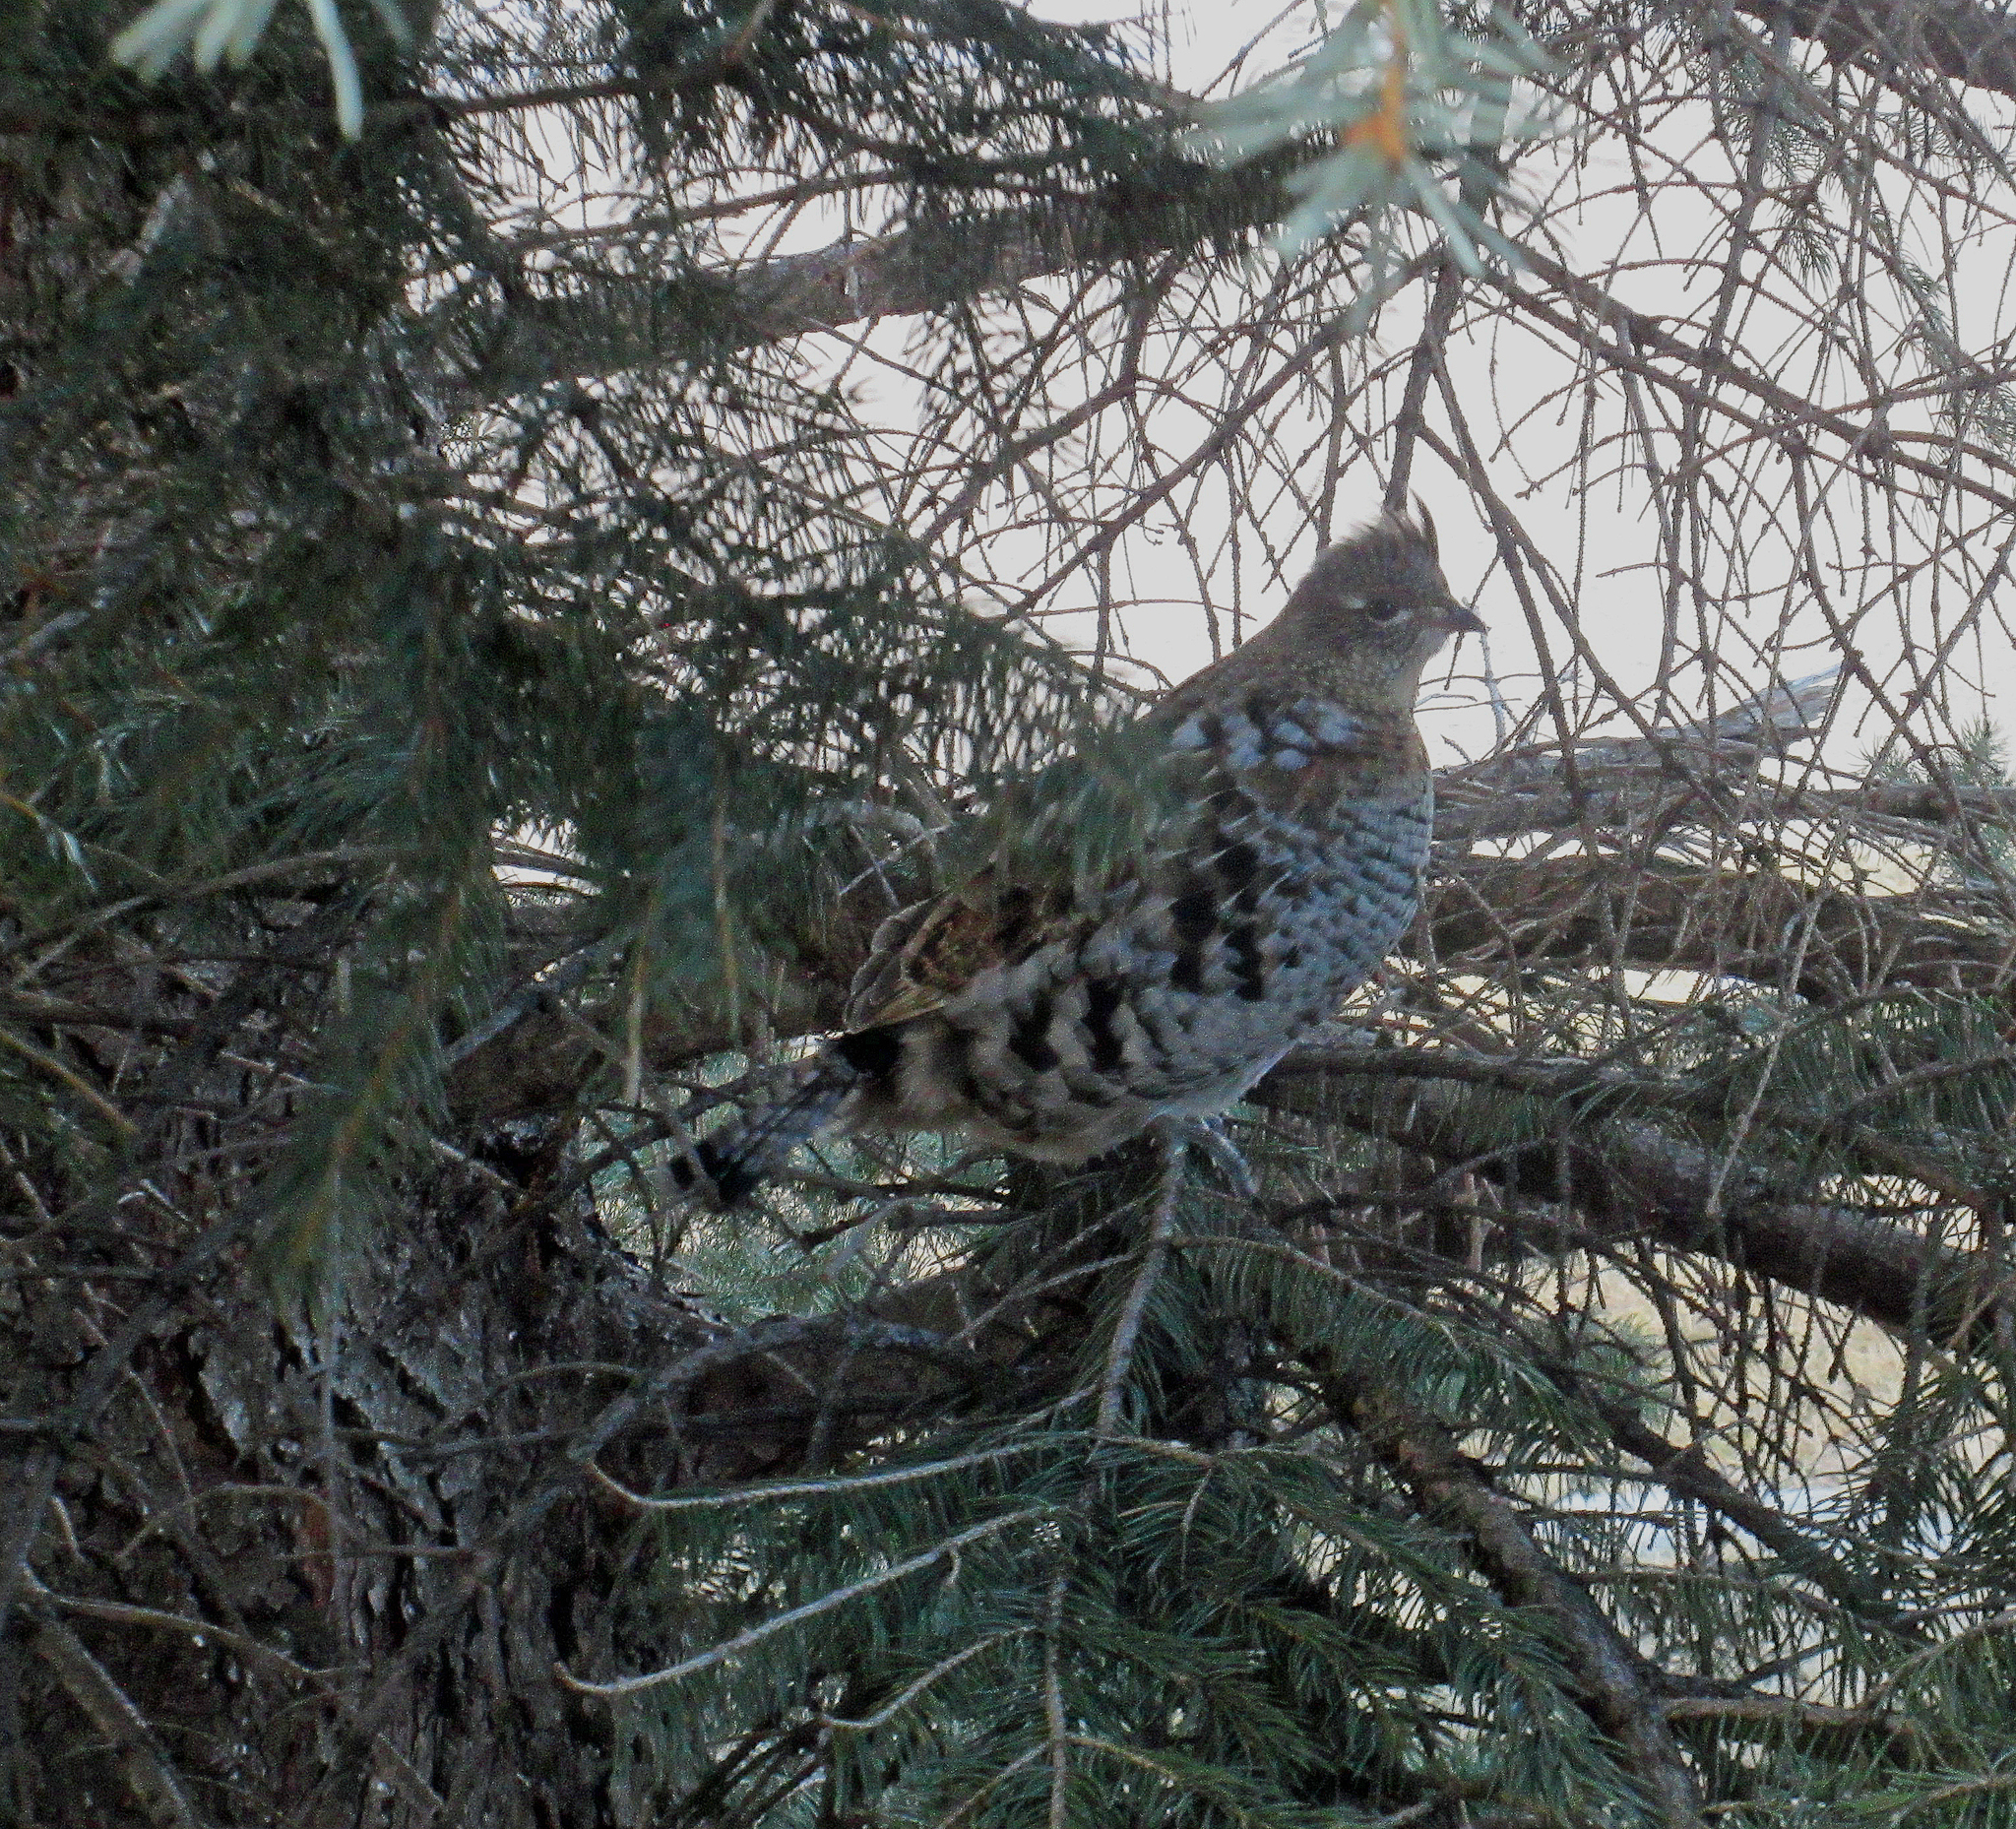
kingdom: Animalia
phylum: Chordata
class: Aves
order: Galliformes
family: Phasianidae
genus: Bonasa
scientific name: Bonasa umbellus
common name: Ruffed grouse
